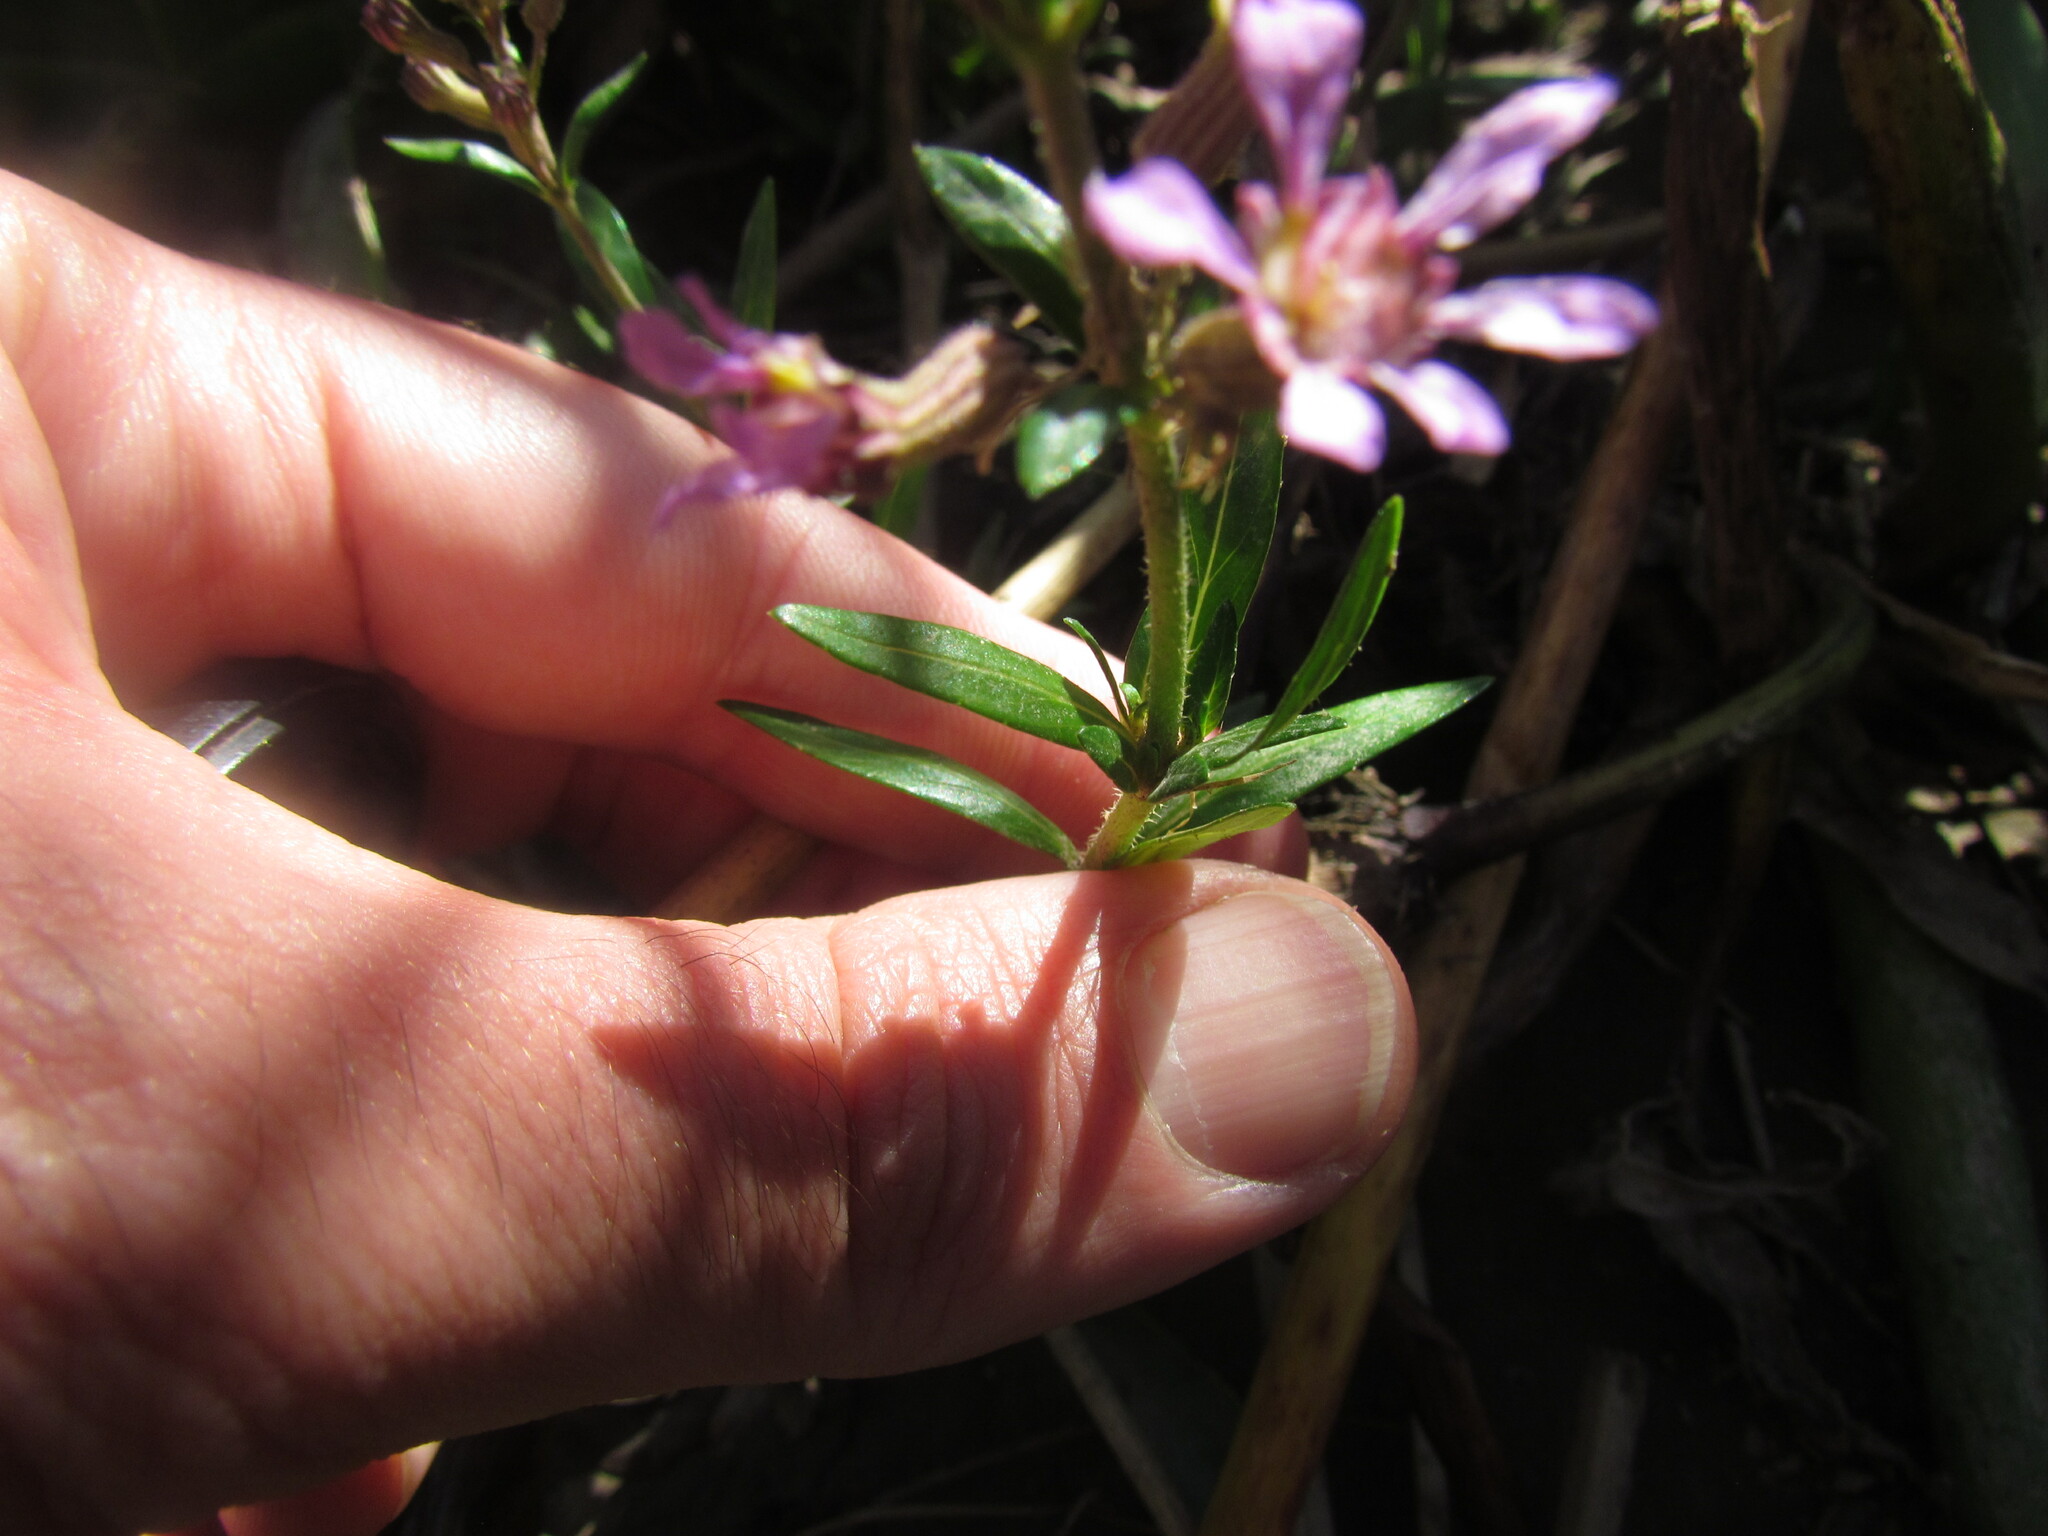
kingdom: Plantae
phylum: Tracheophyta
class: Magnoliopsida
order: Myrtales
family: Lythraceae
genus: Cuphea
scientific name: Cuphea fruticosa
